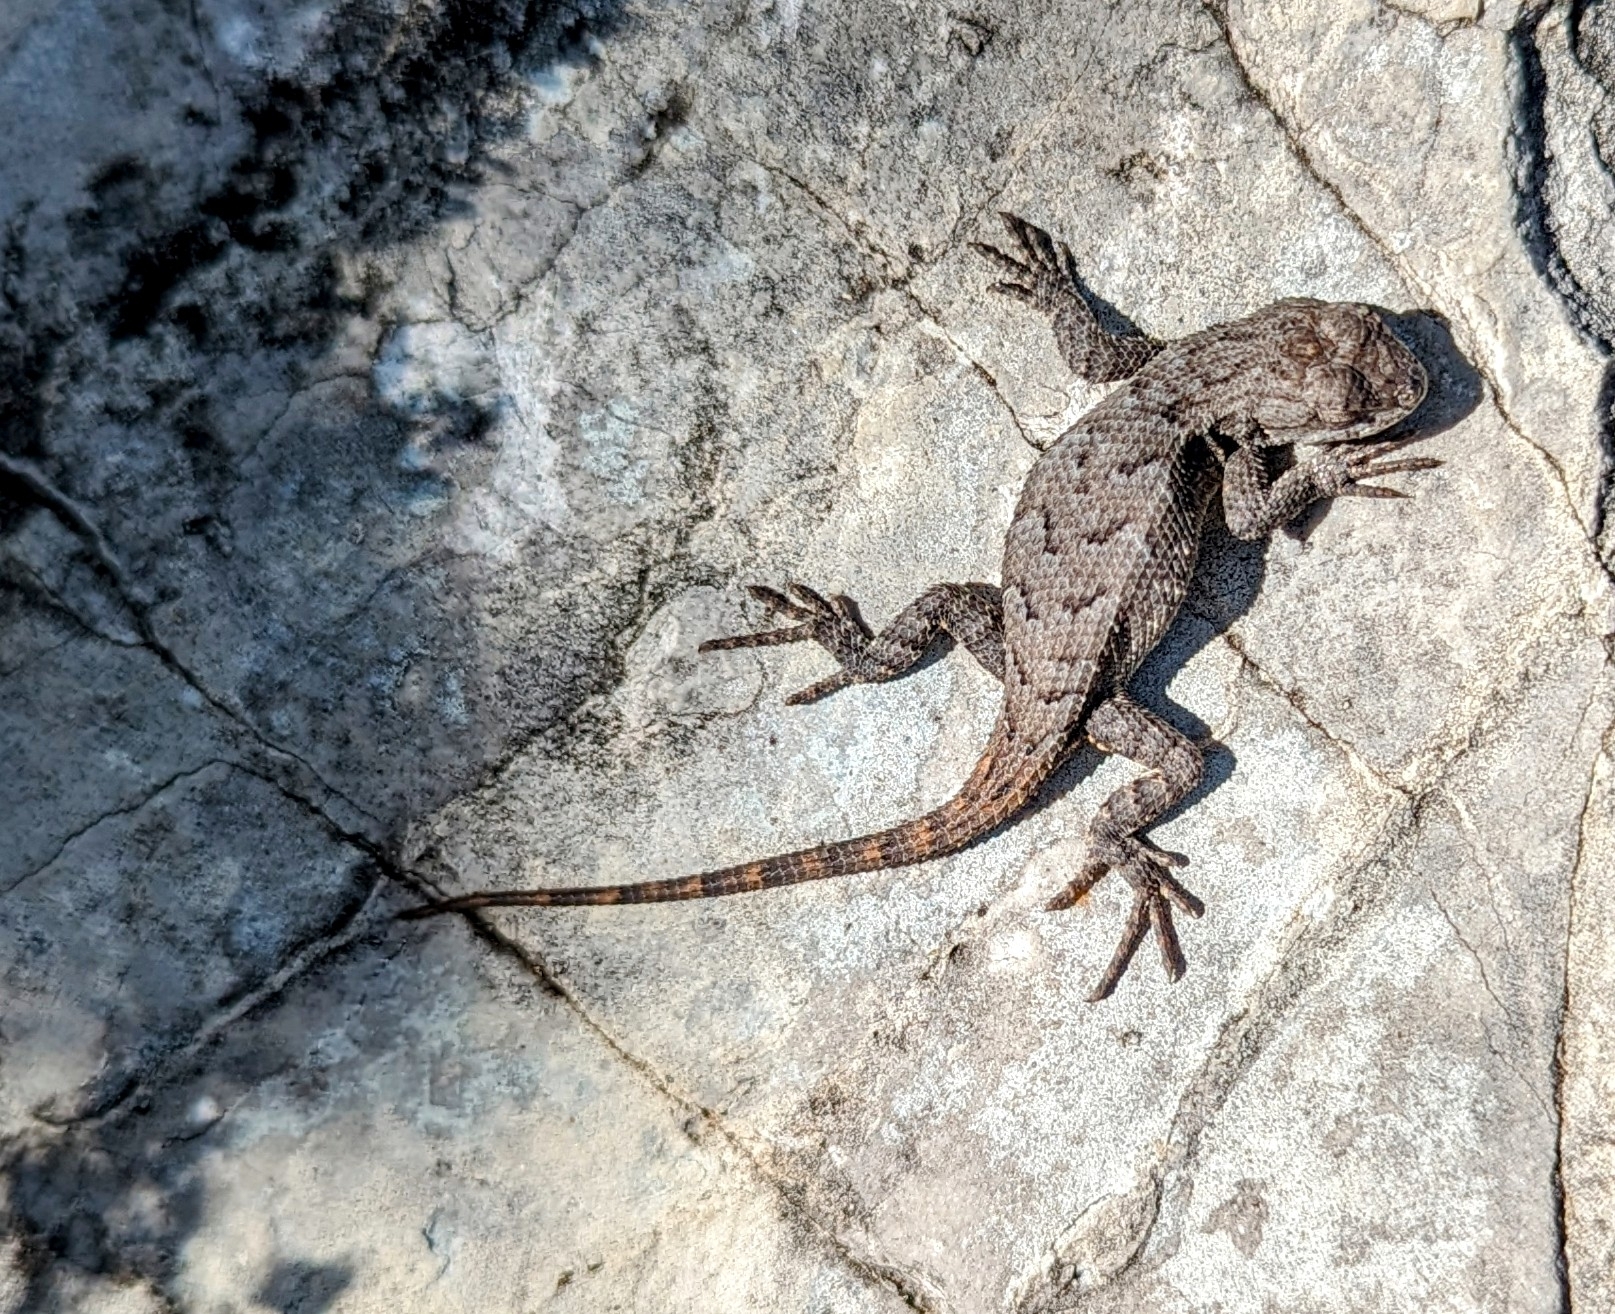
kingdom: Animalia
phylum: Chordata
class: Squamata
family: Phrynosomatidae
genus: Sceloporus
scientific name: Sceloporus consobrinus
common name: Southern prairie lizard
